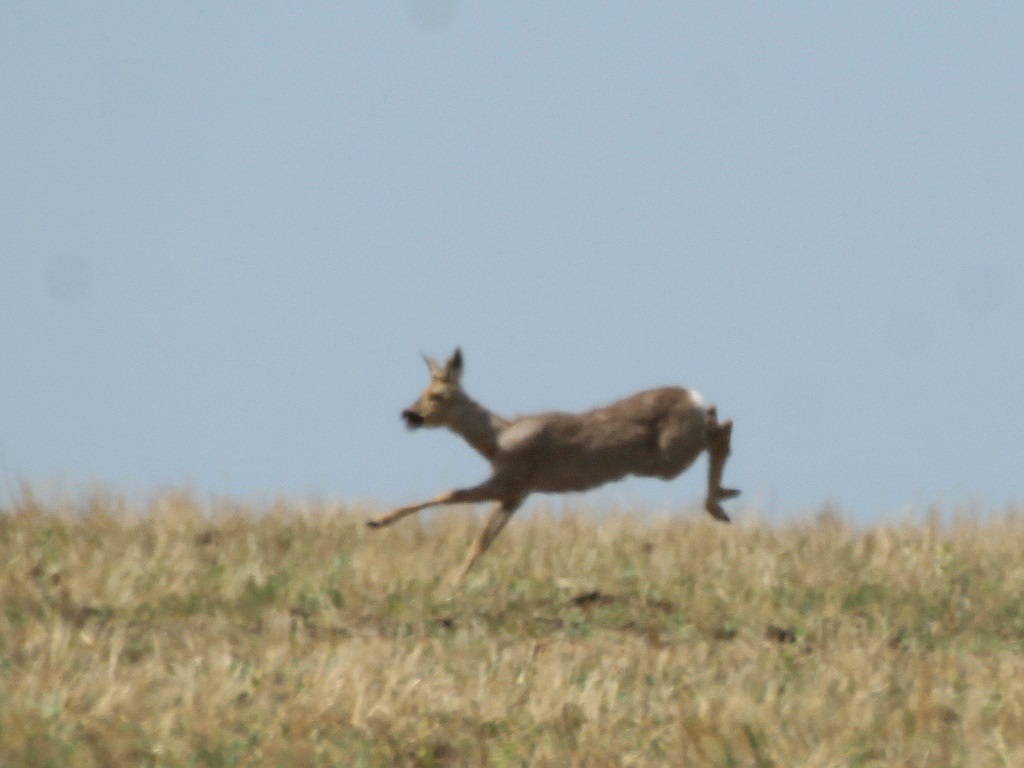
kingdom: Animalia
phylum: Chordata
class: Mammalia
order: Artiodactyla
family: Cervidae
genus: Capreolus
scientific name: Capreolus pygargus
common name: Siberian roe
